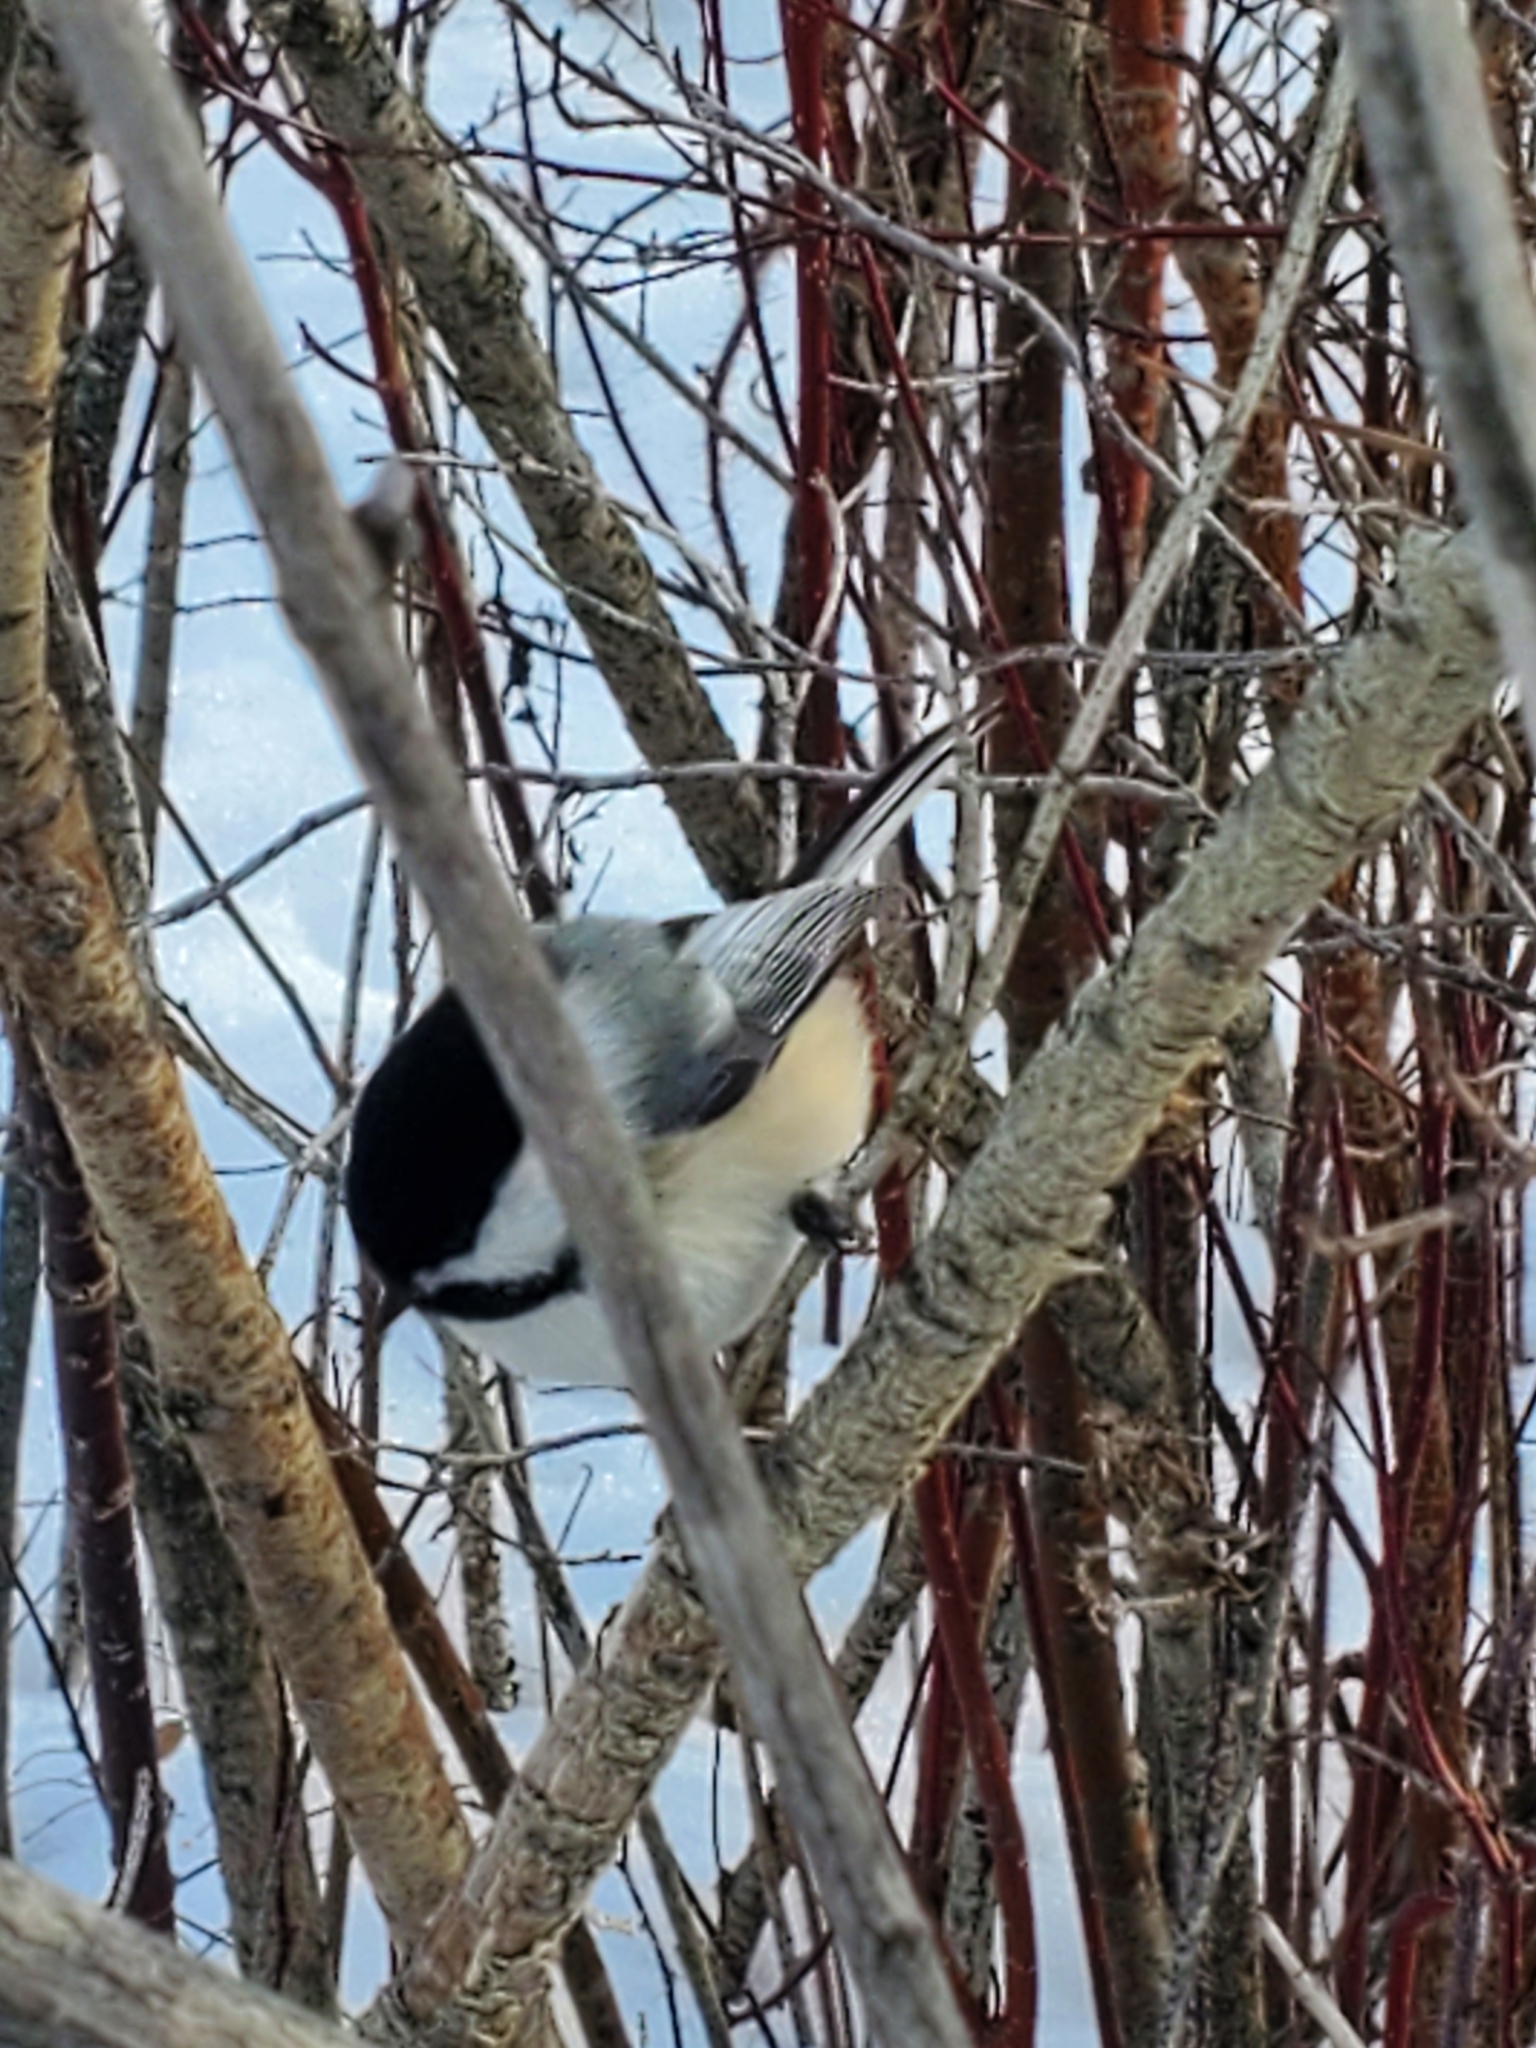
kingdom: Animalia
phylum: Chordata
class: Aves
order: Passeriformes
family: Paridae
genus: Poecile
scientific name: Poecile atricapillus
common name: Black-capped chickadee
